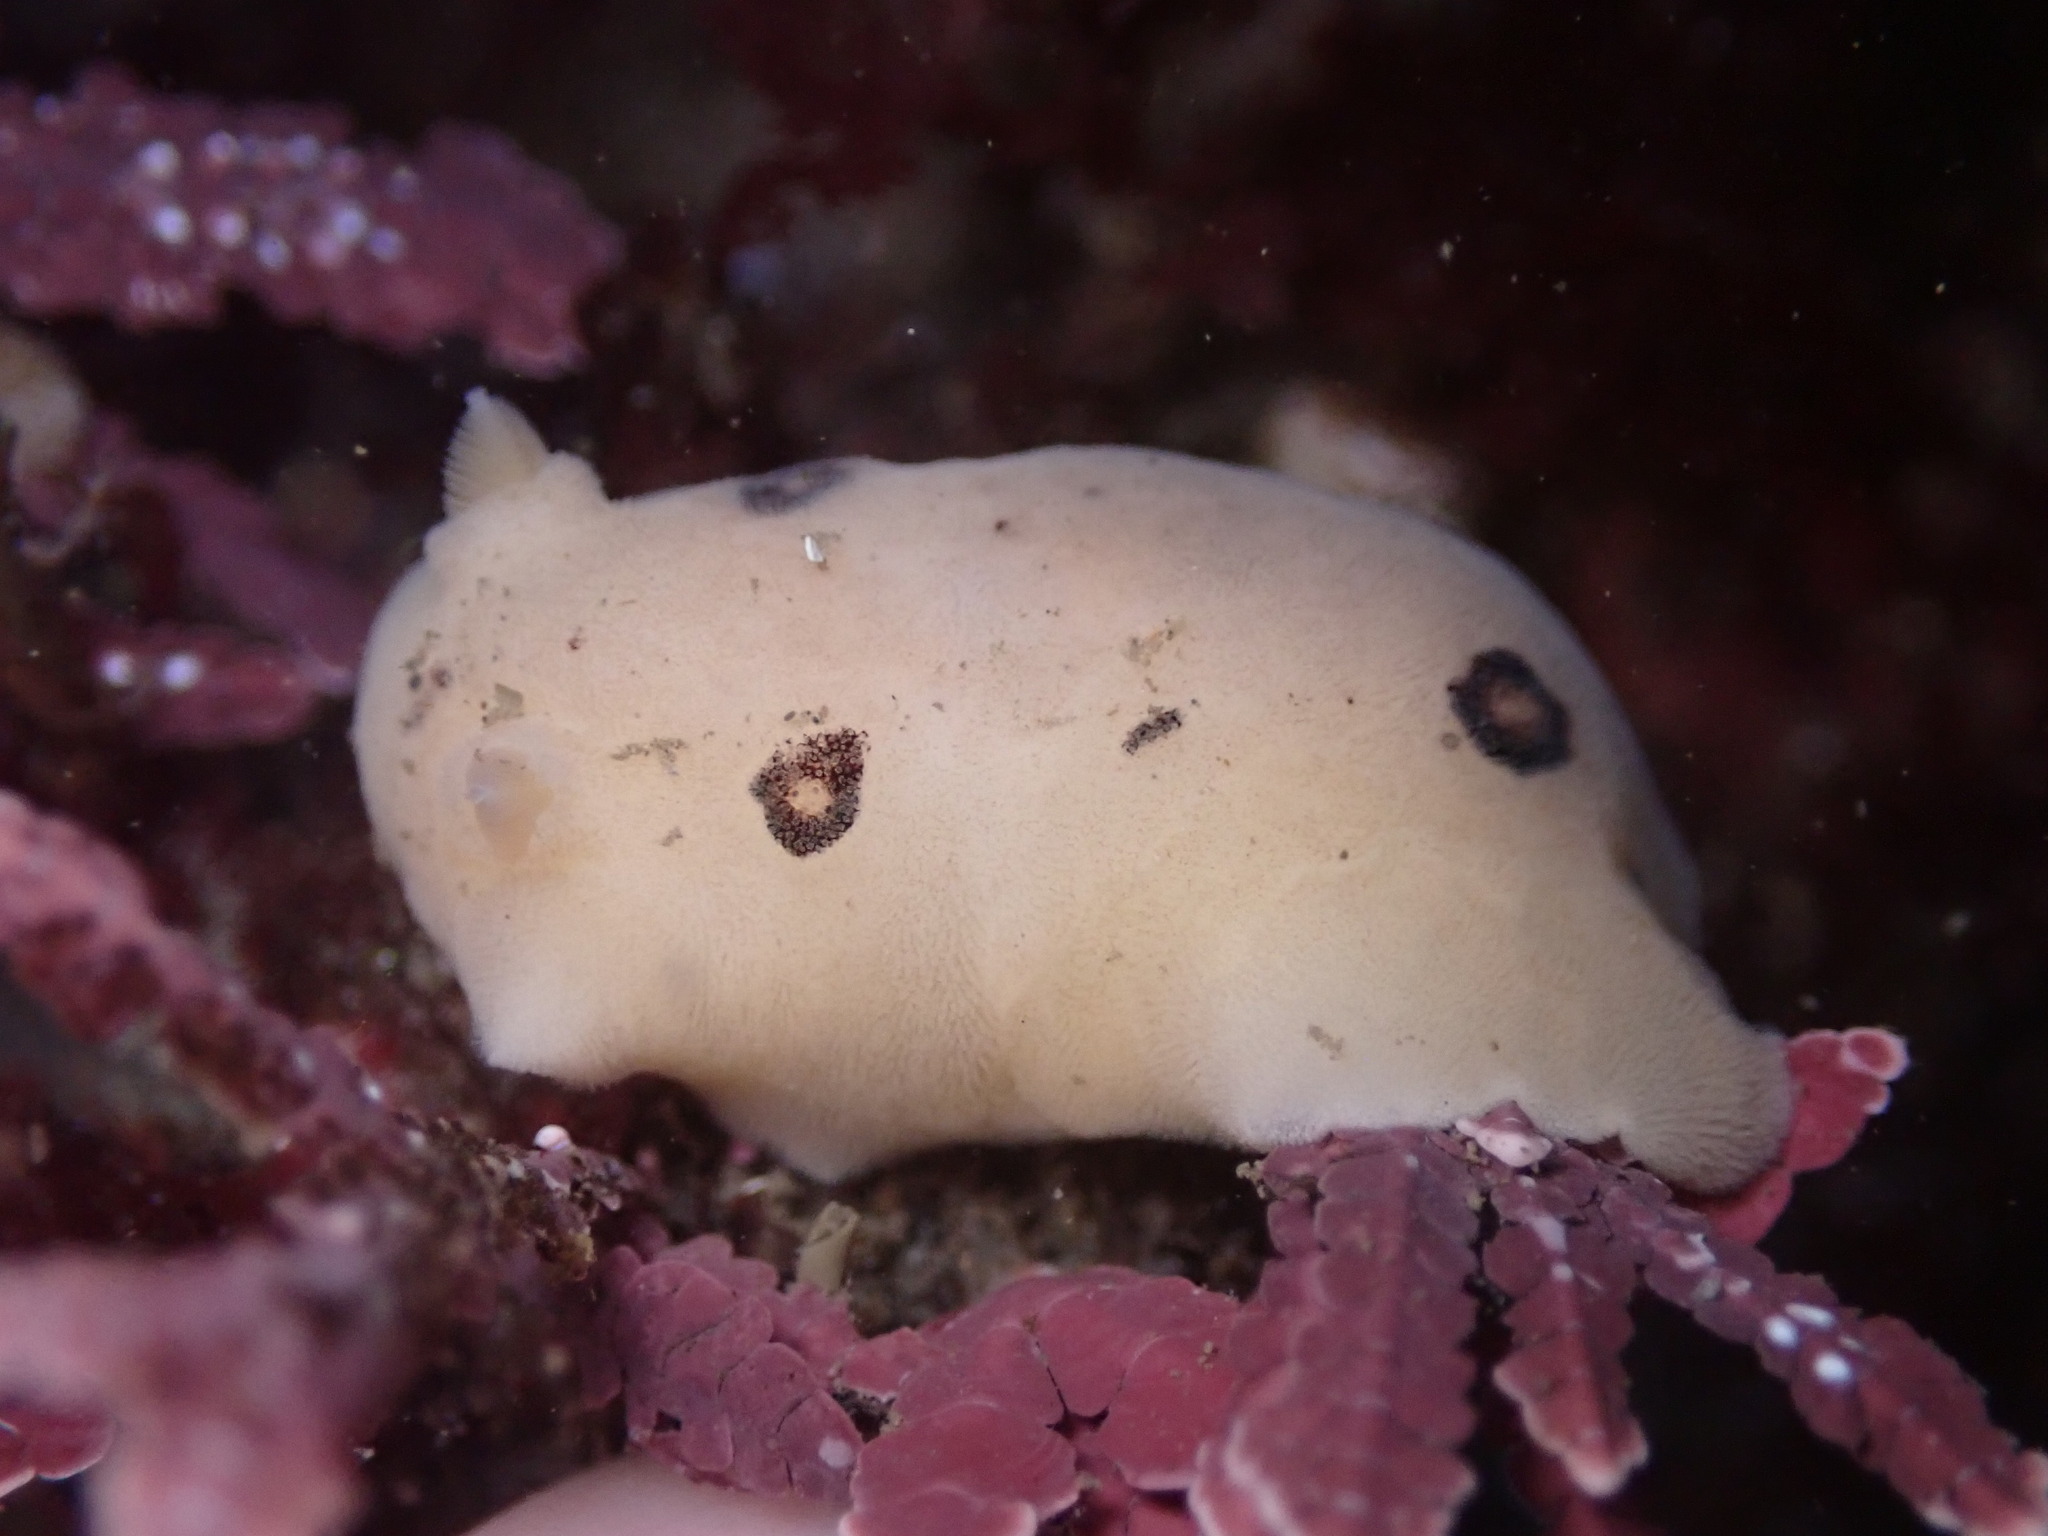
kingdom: Animalia
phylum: Mollusca
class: Gastropoda
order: Nudibranchia
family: Discodorididae
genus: Diaulula
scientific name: Diaulula sandiegensis
